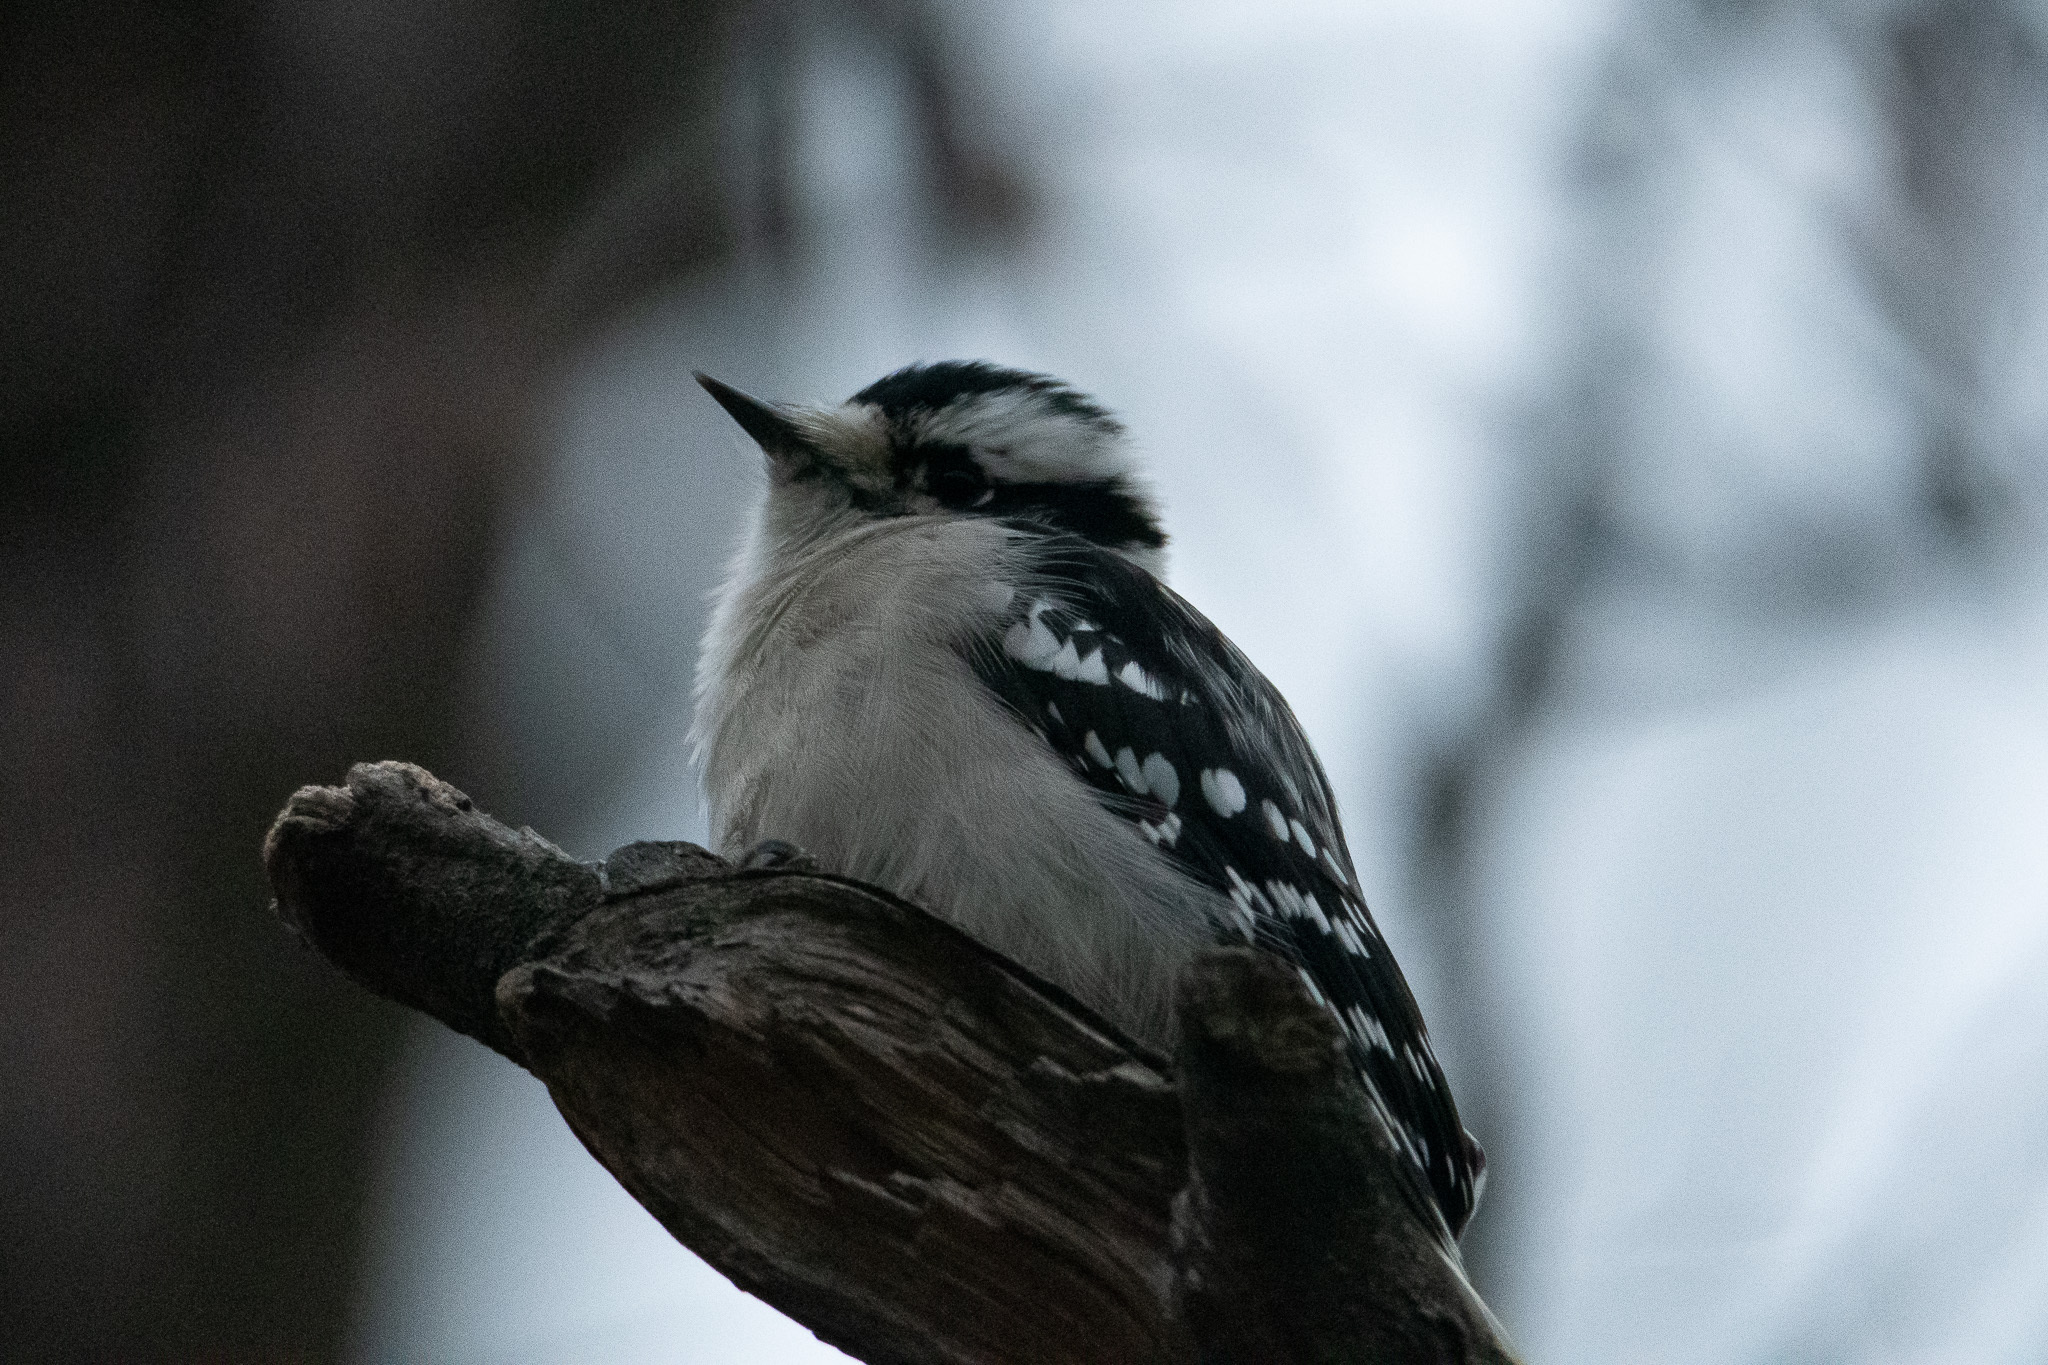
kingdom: Animalia
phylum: Chordata
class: Aves
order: Piciformes
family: Picidae
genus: Dryobates
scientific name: Dryobates pubescens
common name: Downy woodpecker
